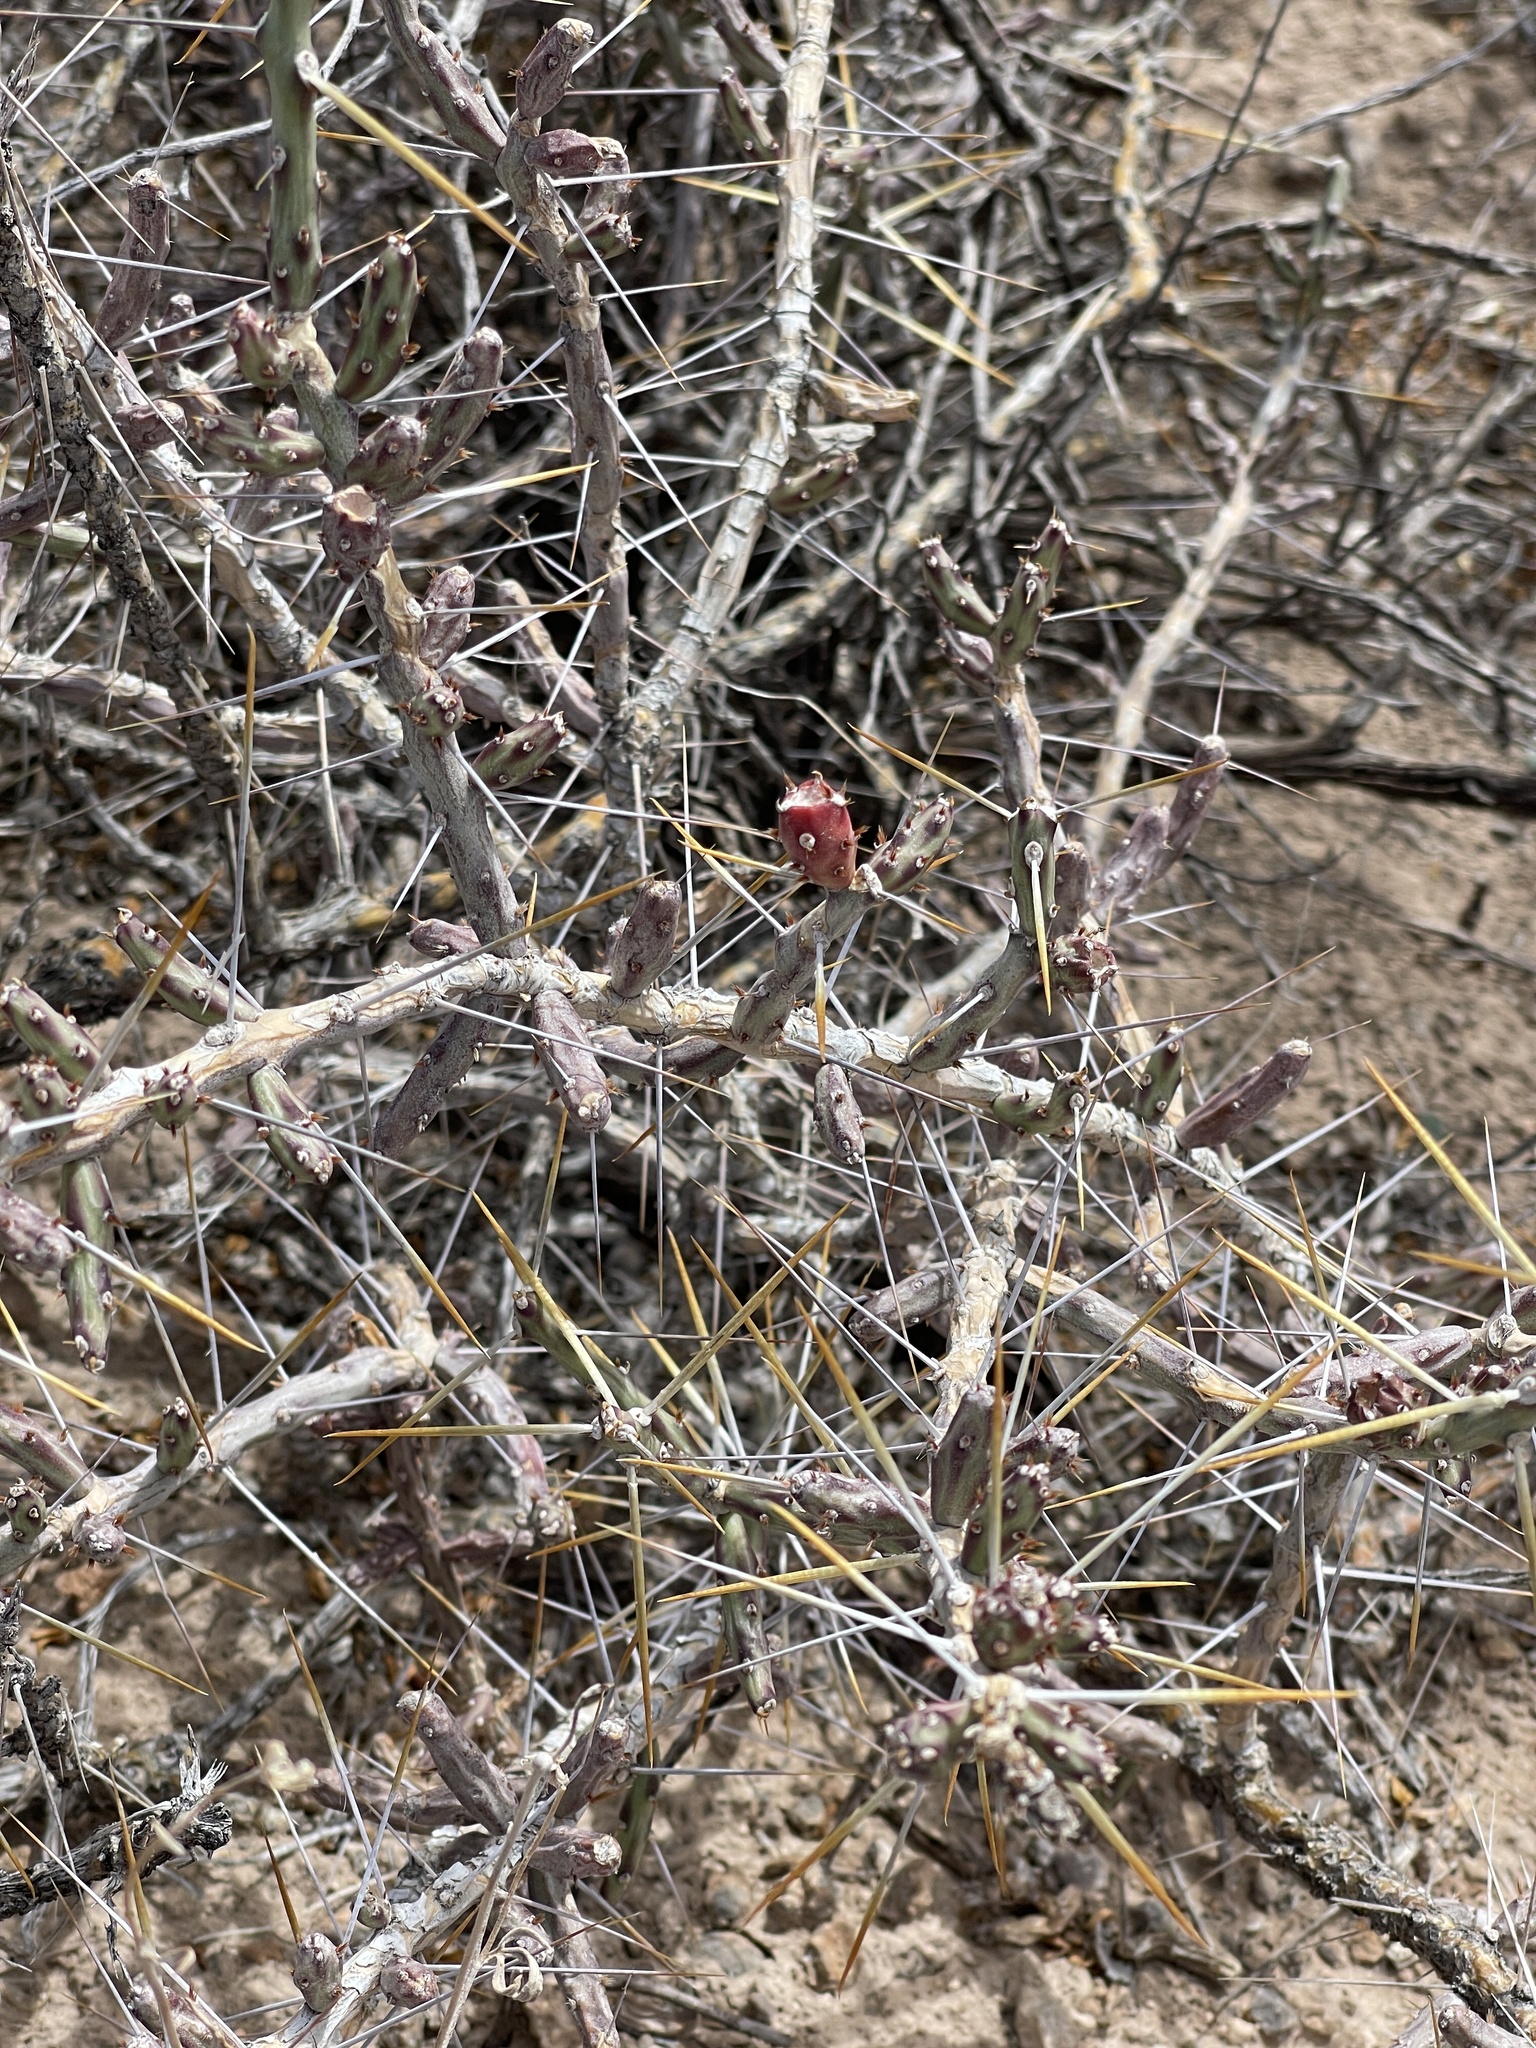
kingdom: Plantae
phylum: Tracheophyta
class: Magnoliopsida
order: Caryophyllales
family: Cactaceae
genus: Cylindropuntia
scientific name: Cylindropuntia leptocaulis
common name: Christmas cactus
